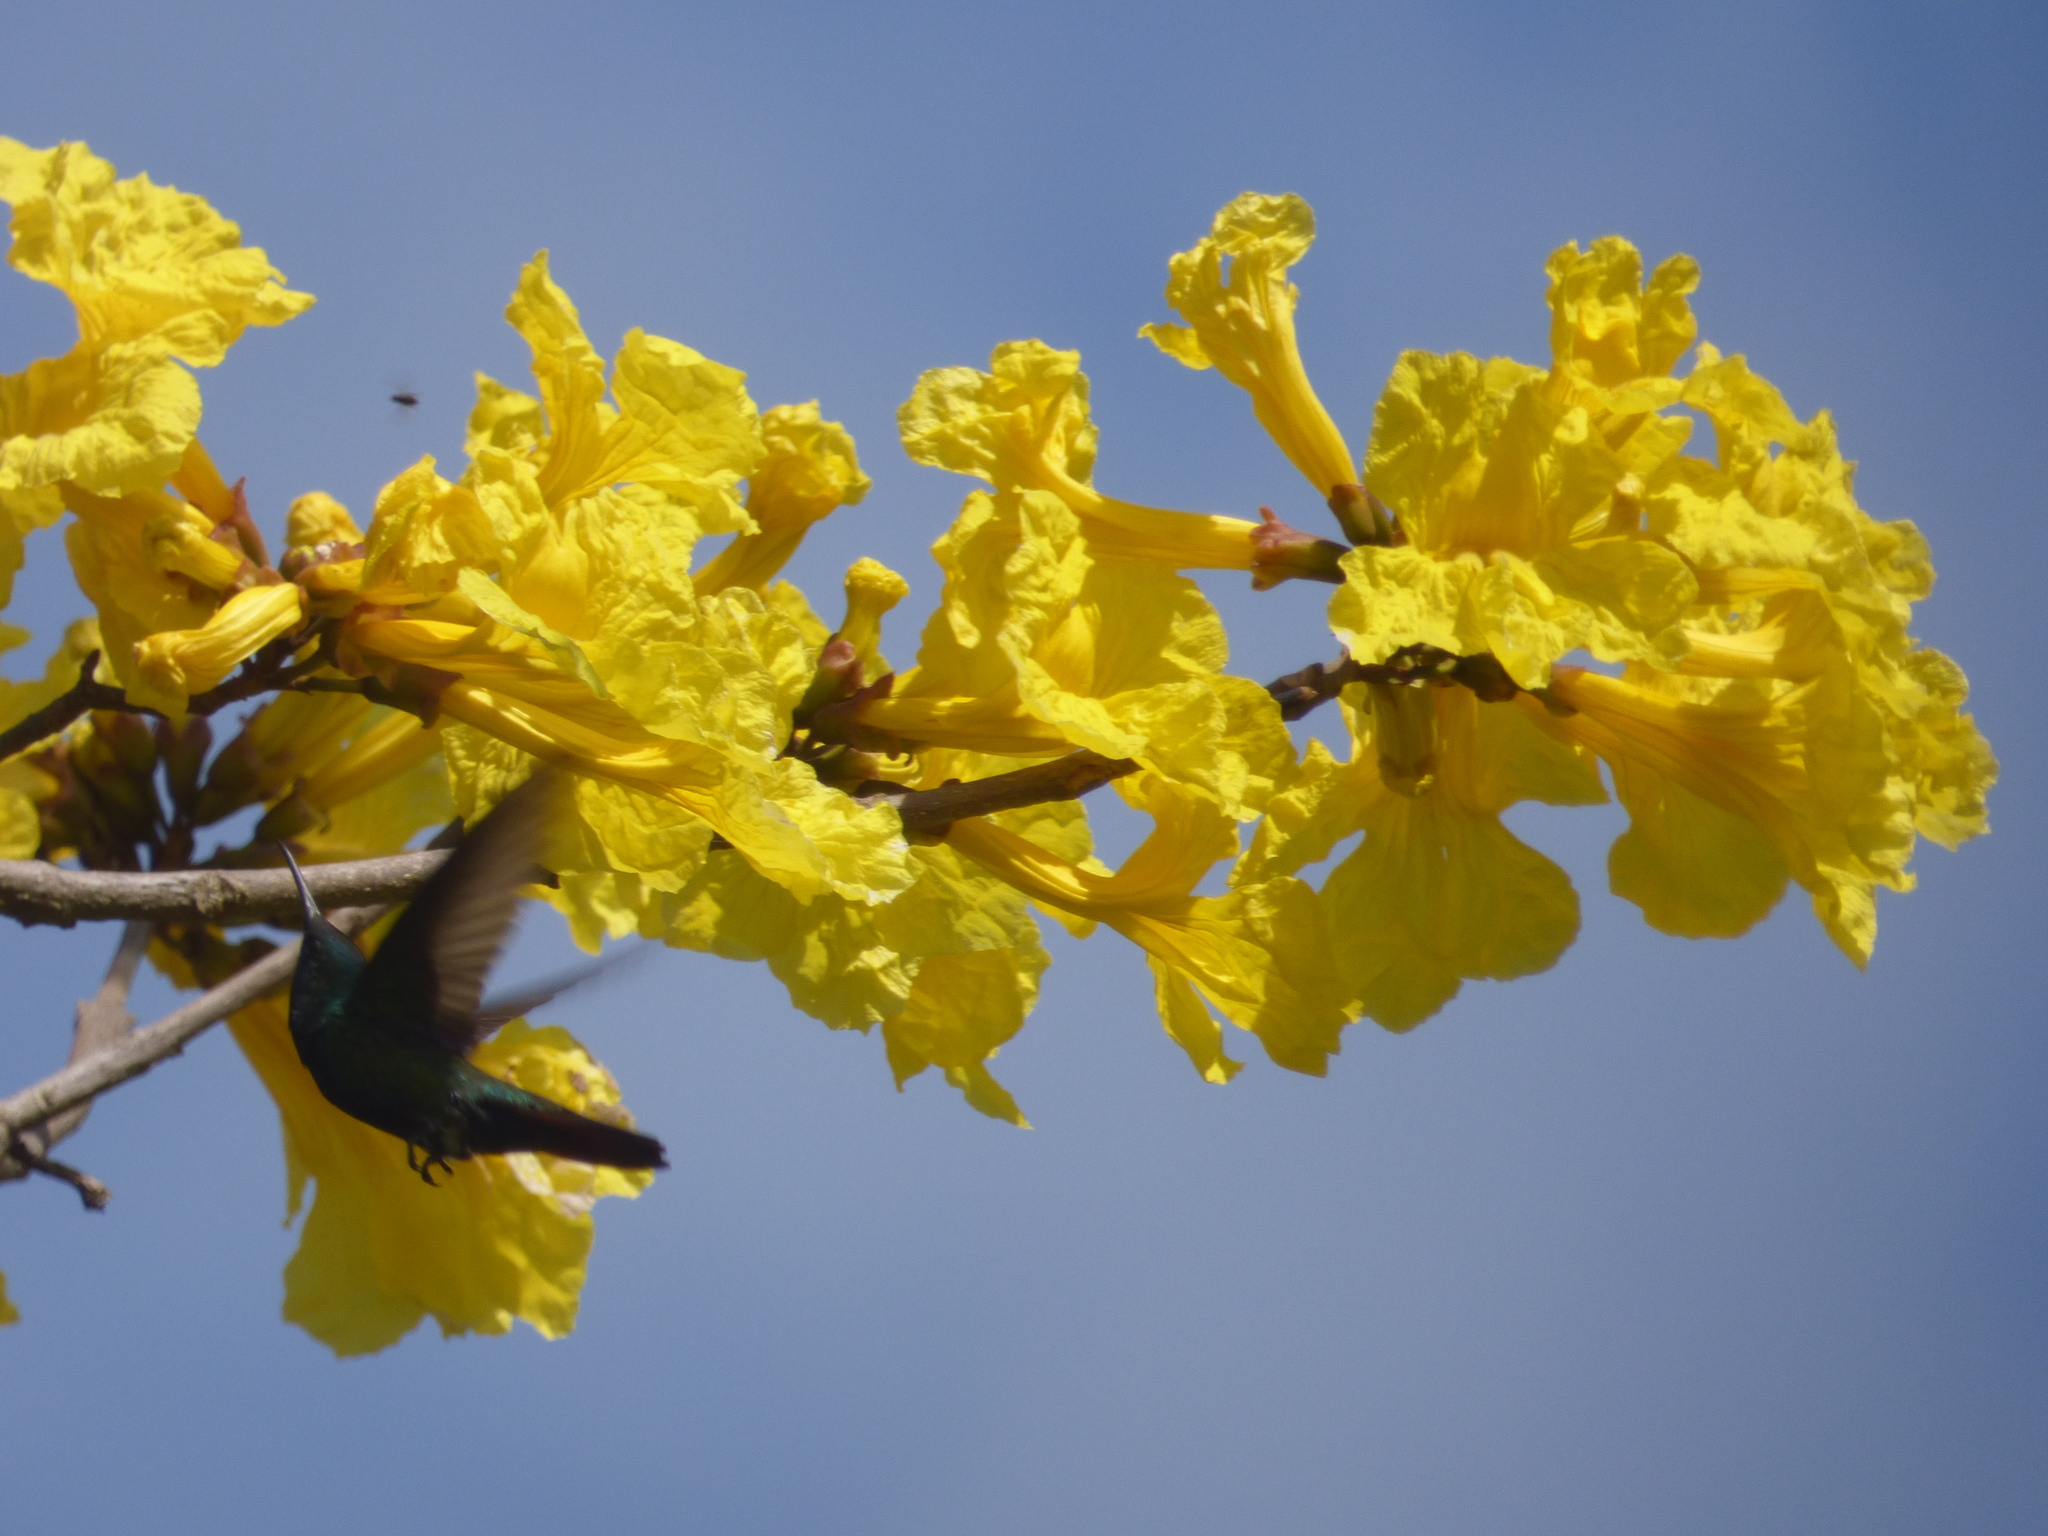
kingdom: Animalia
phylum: Chordata
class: Aves
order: Apodiformes
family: Trochilidae
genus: Saucerottia
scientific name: Saucerottia saucerottei
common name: Steely-vented hummingbird
